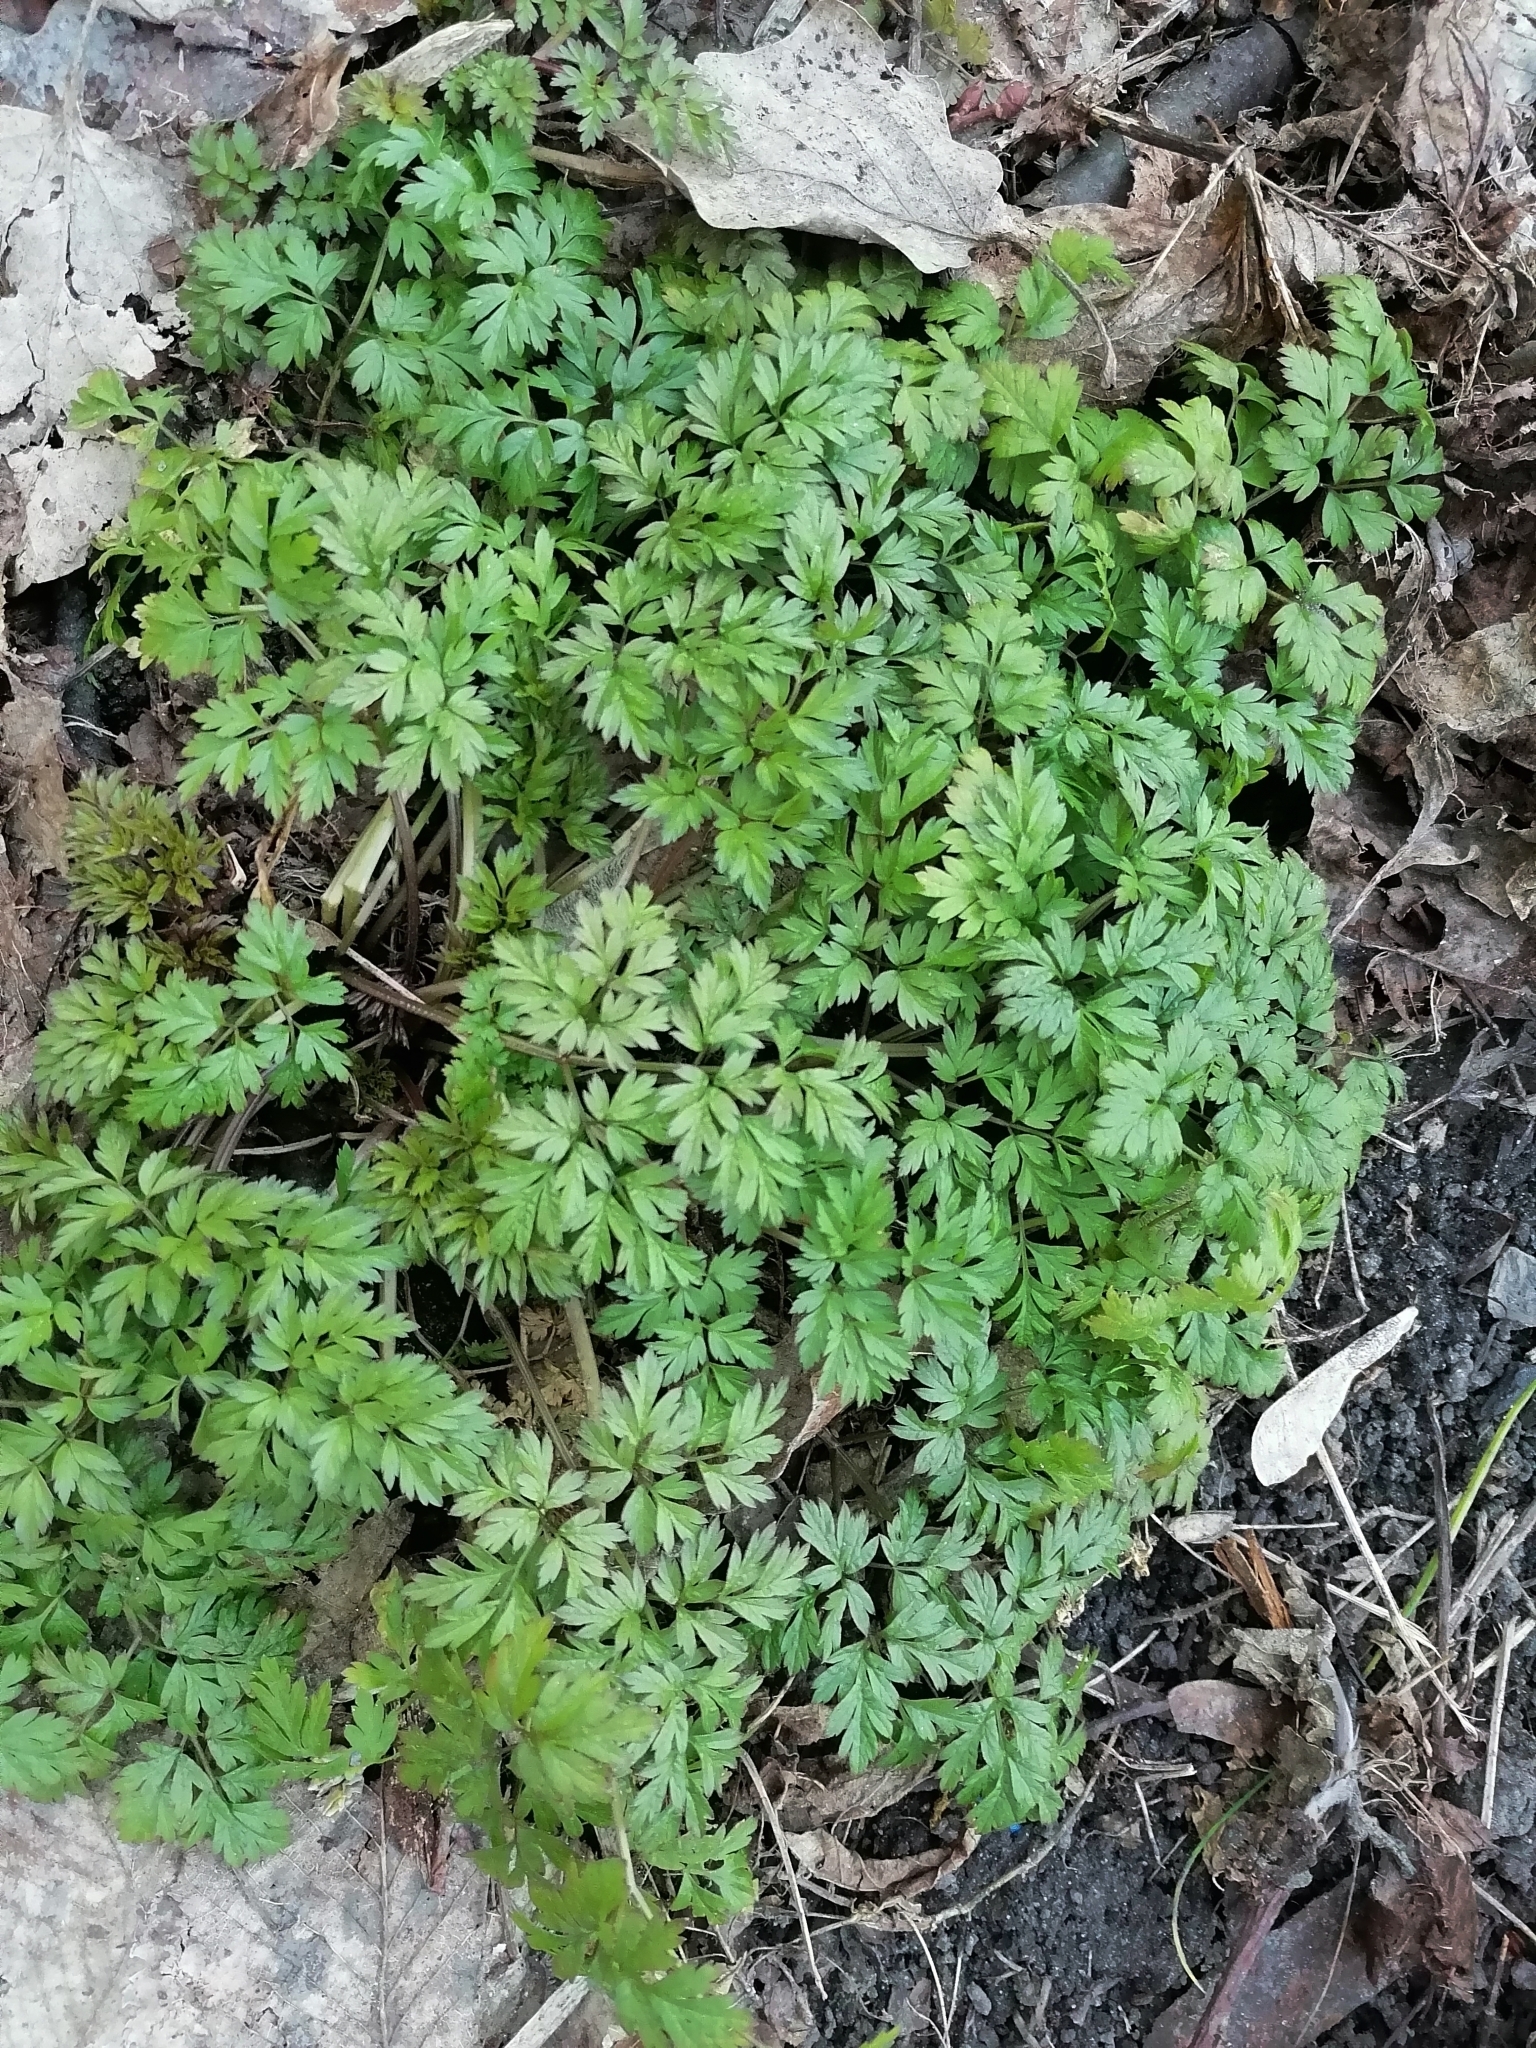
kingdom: Plantae
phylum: Tracheophyta
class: Magnoliopsida
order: Apiales
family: Apiaceae
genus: Anthriscus
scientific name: Anthriscus sylvestris
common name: Cow parsley
